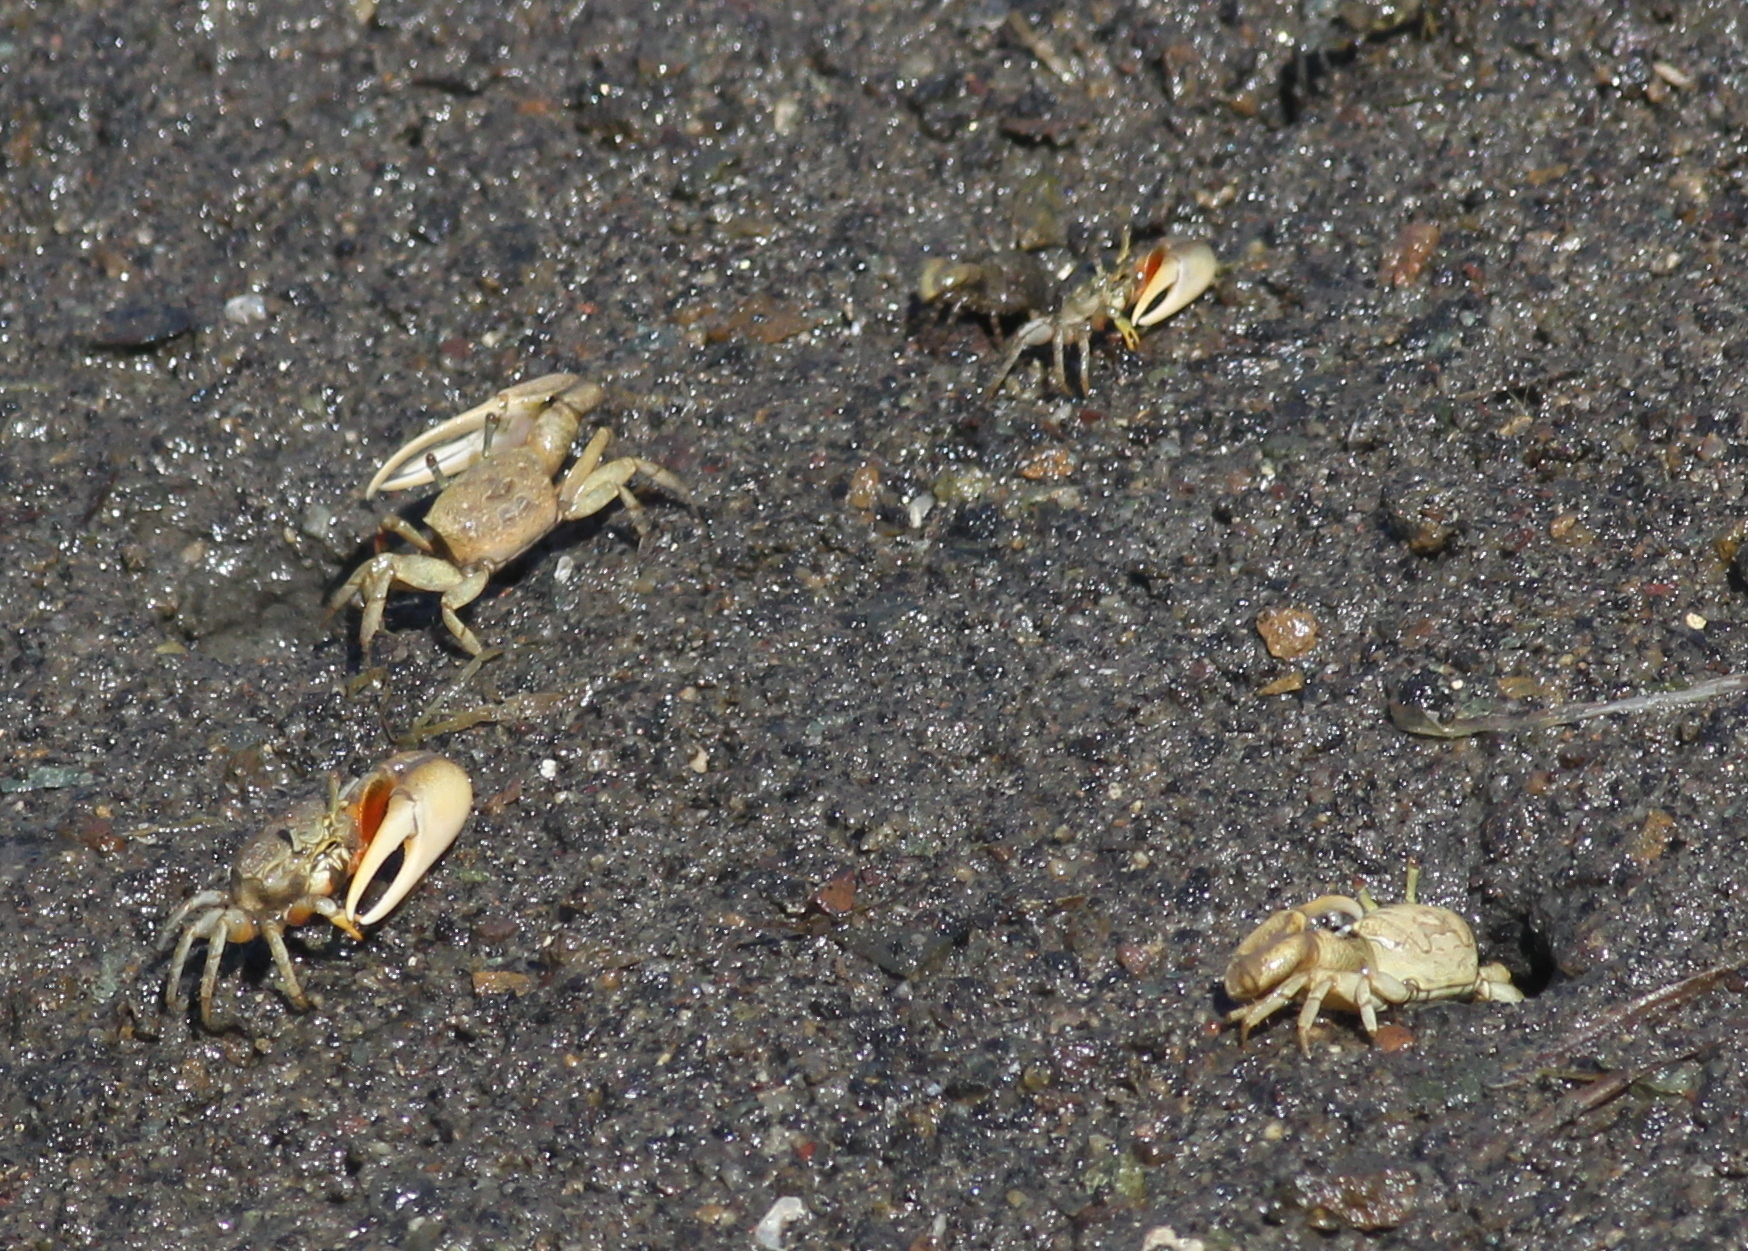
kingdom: Animalia
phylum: Arthropoda
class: Malacostraca
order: Decapoda
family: Ocypodidae
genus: Leptuca
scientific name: Leptuca crenulata
